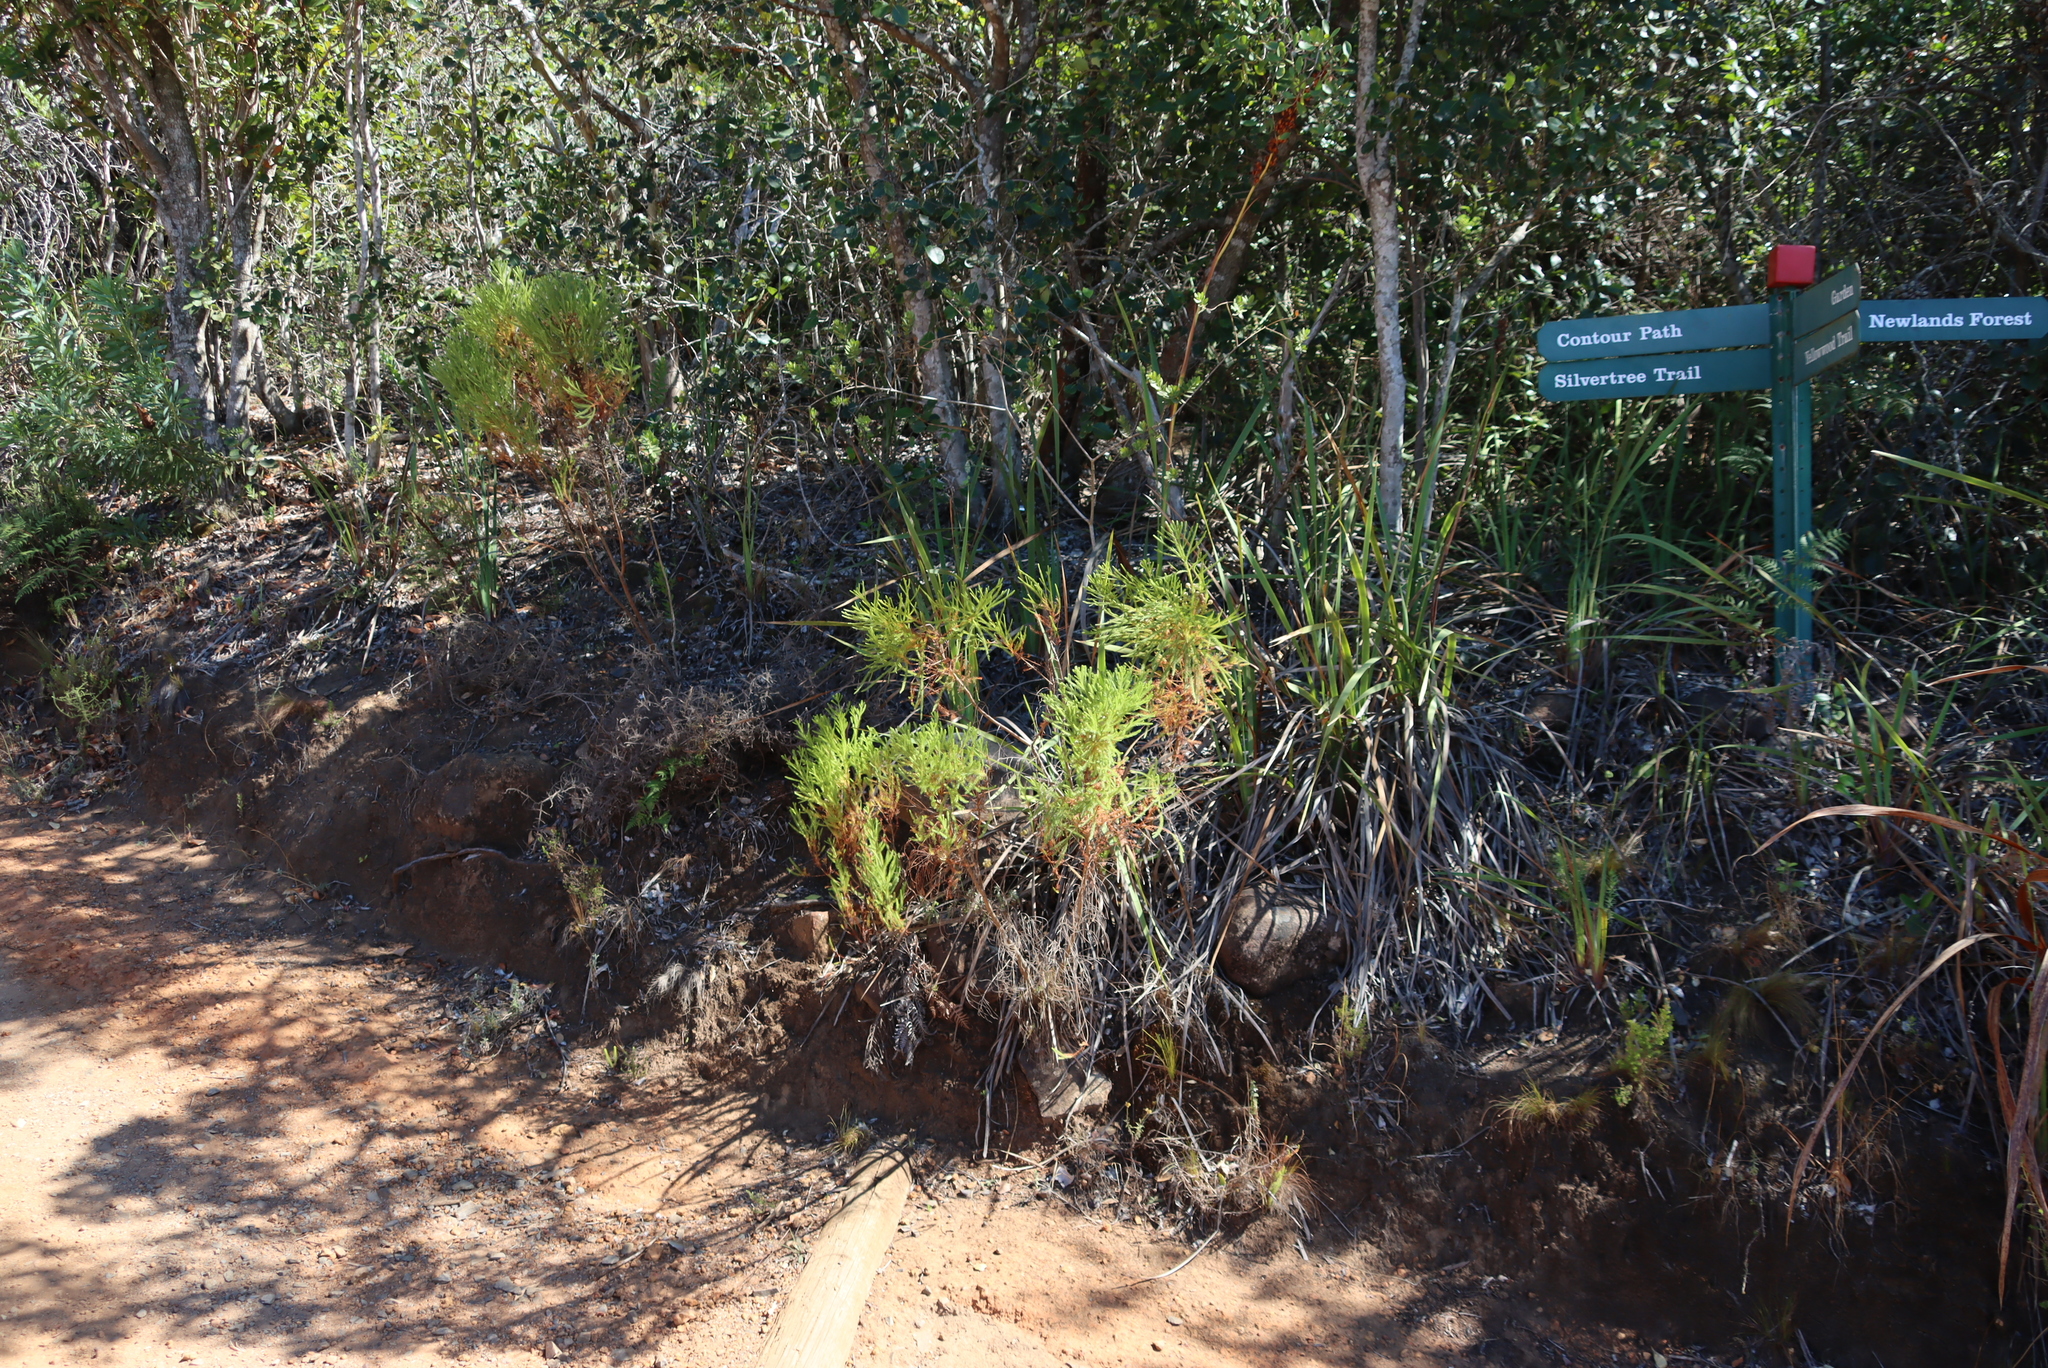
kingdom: Plantae
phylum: Tracheophyta
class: Magnoliopsida
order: Bruniales
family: Bruniaceae
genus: Berzelia
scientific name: Berzelia lanuginosa
